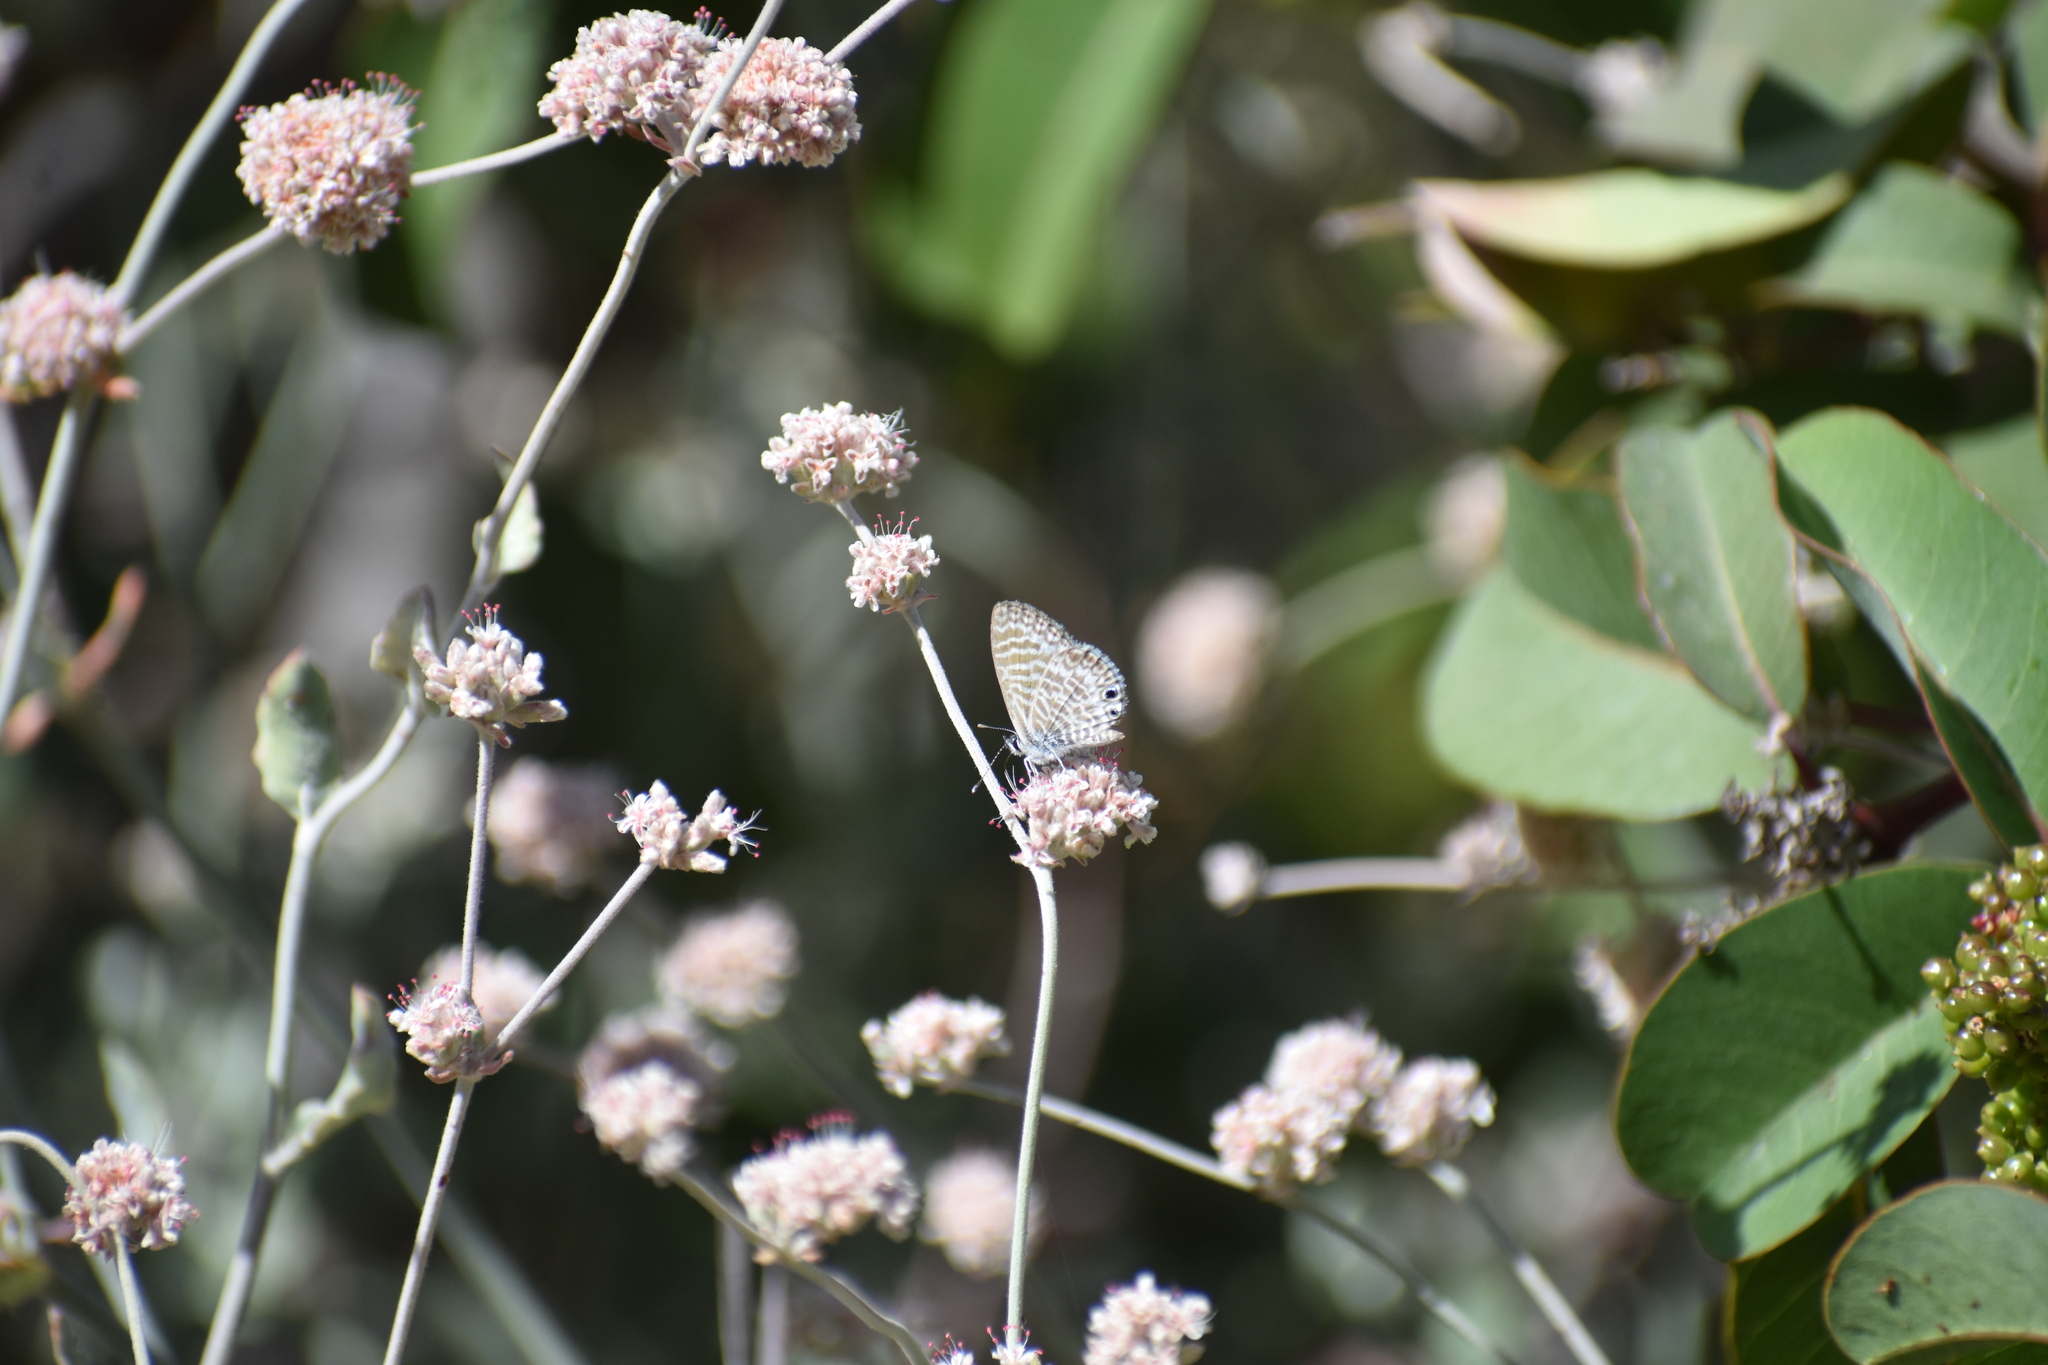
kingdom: Animalia
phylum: Arthropoda
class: Insecta
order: Lepidoptera
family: Lycaenidae
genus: Leptotes
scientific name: Leptotes marina
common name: Marine blue
